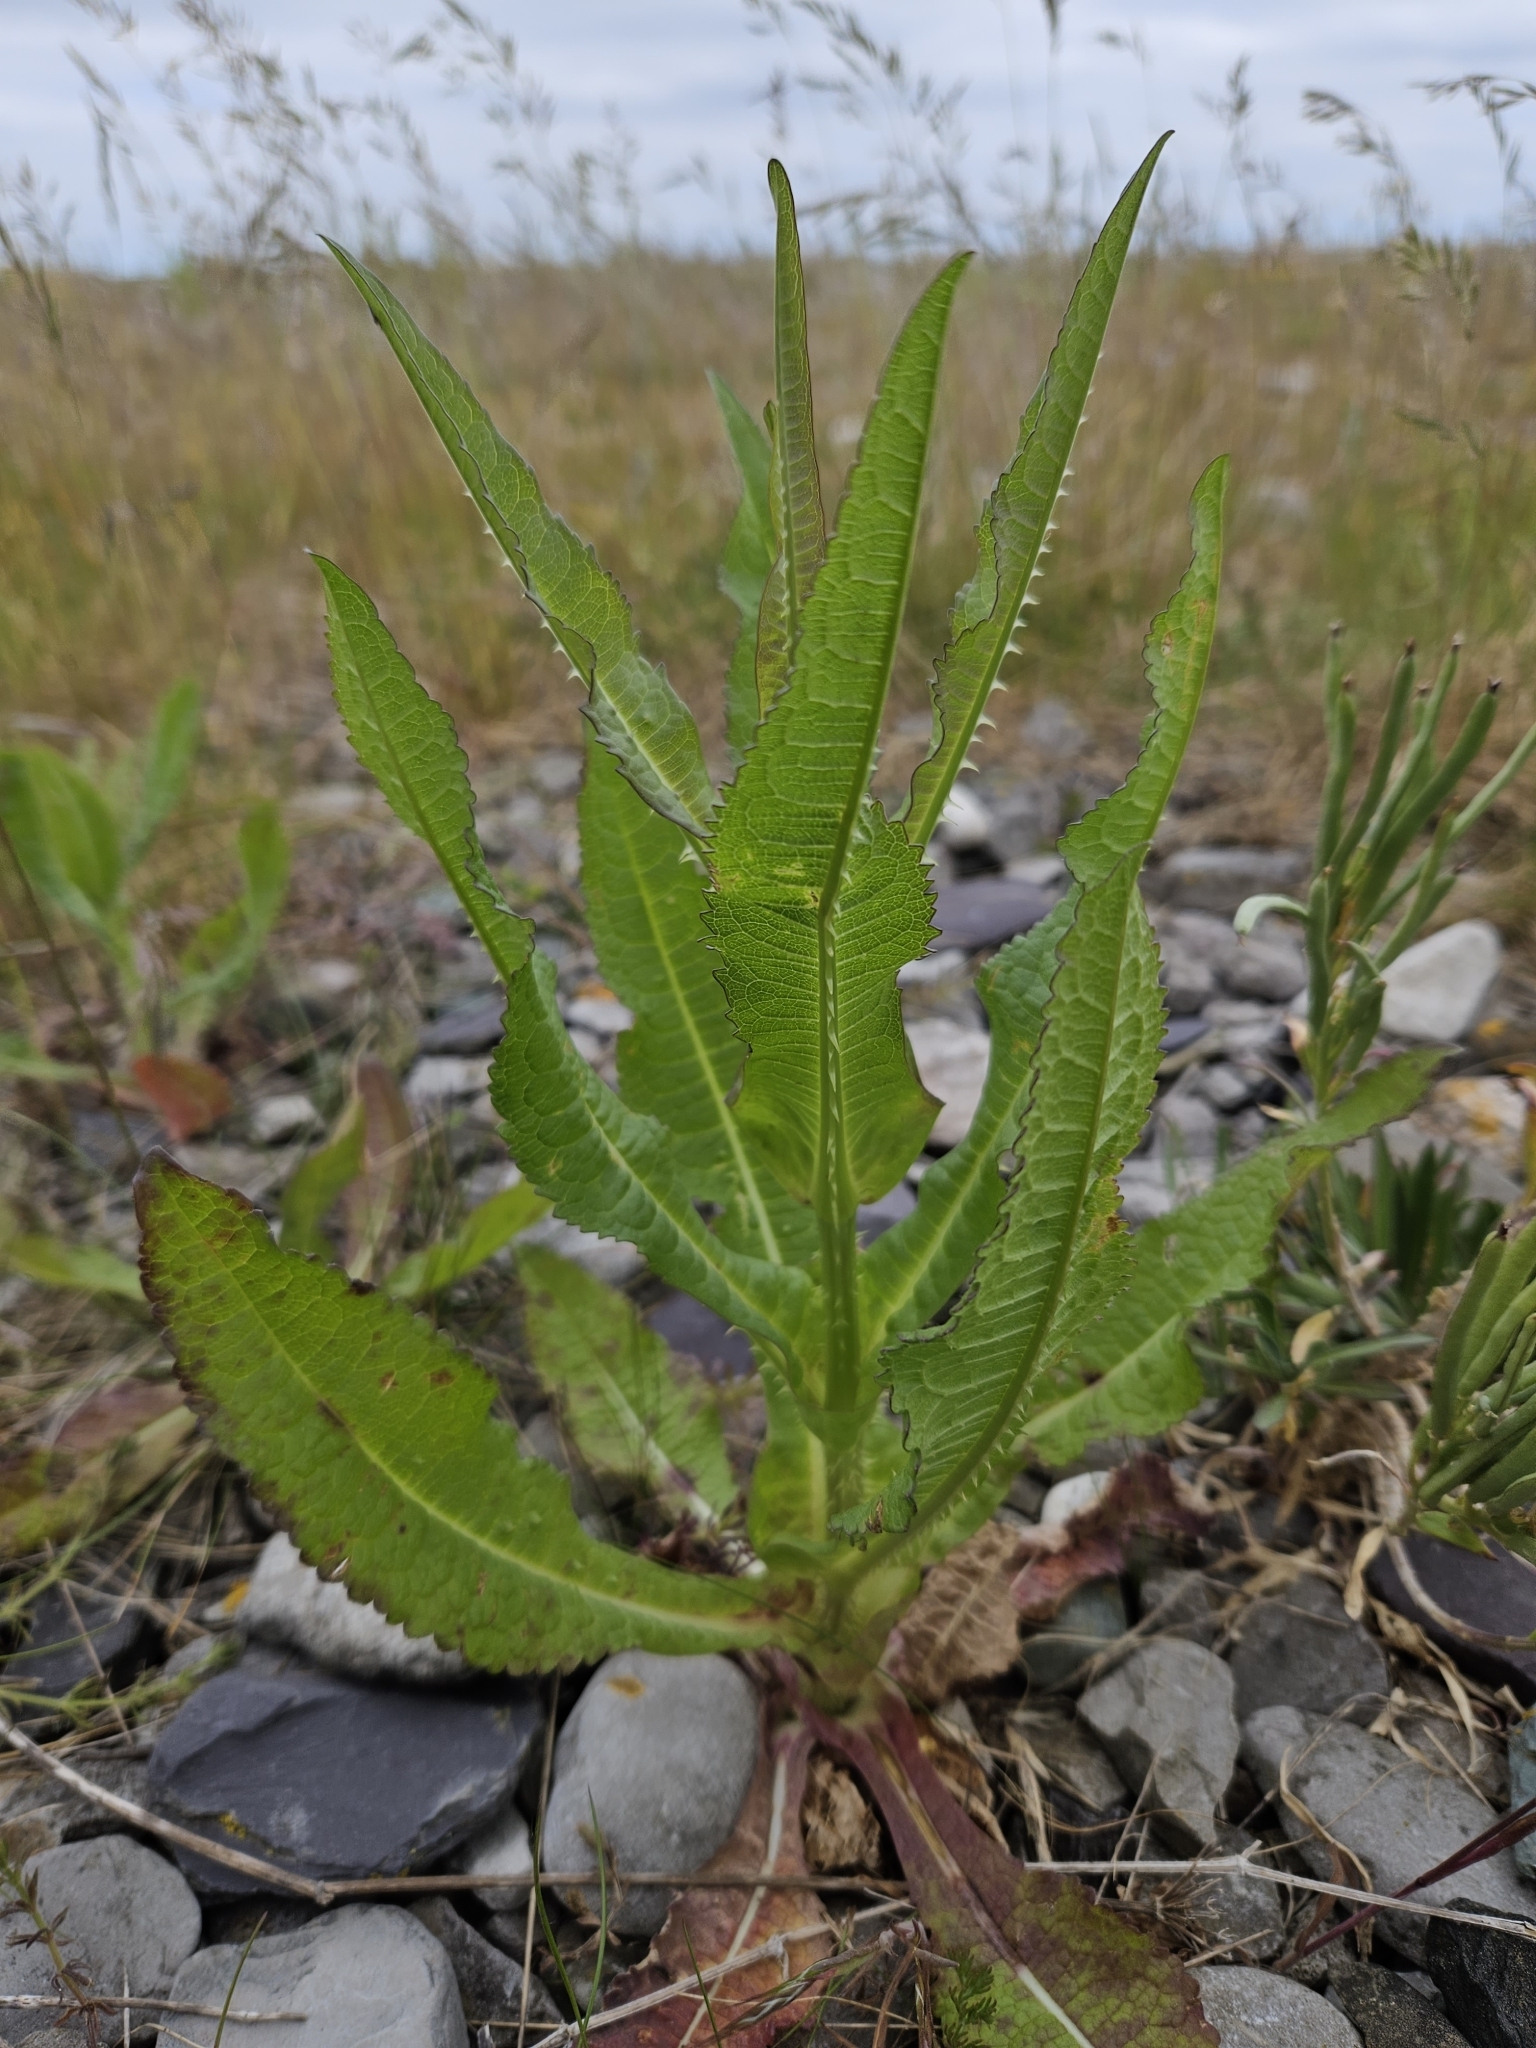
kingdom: Plantae
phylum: Tracheophyta
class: Magnoliopsida
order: Dipsacales
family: Caprifoliaceae
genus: Dipsacus
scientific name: Dipsacus fullonum
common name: Teasel
